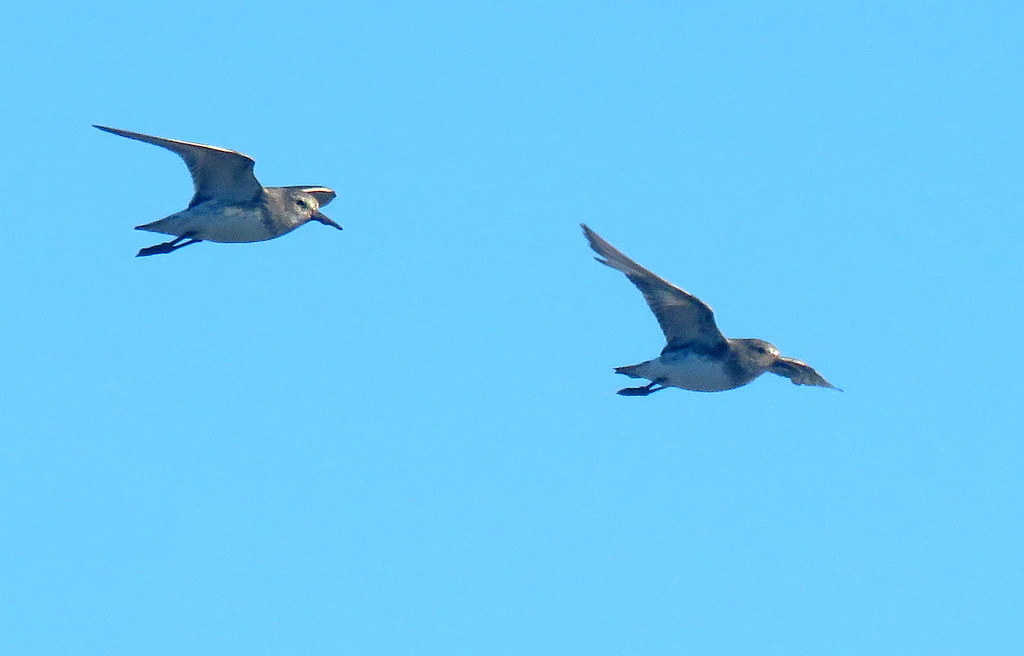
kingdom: Animalia
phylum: Chordata
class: Aves
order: Charadriiformes
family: Scolopacidae
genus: Calidris
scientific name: Calidris fuscicollis
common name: White-rumped sandpiper
